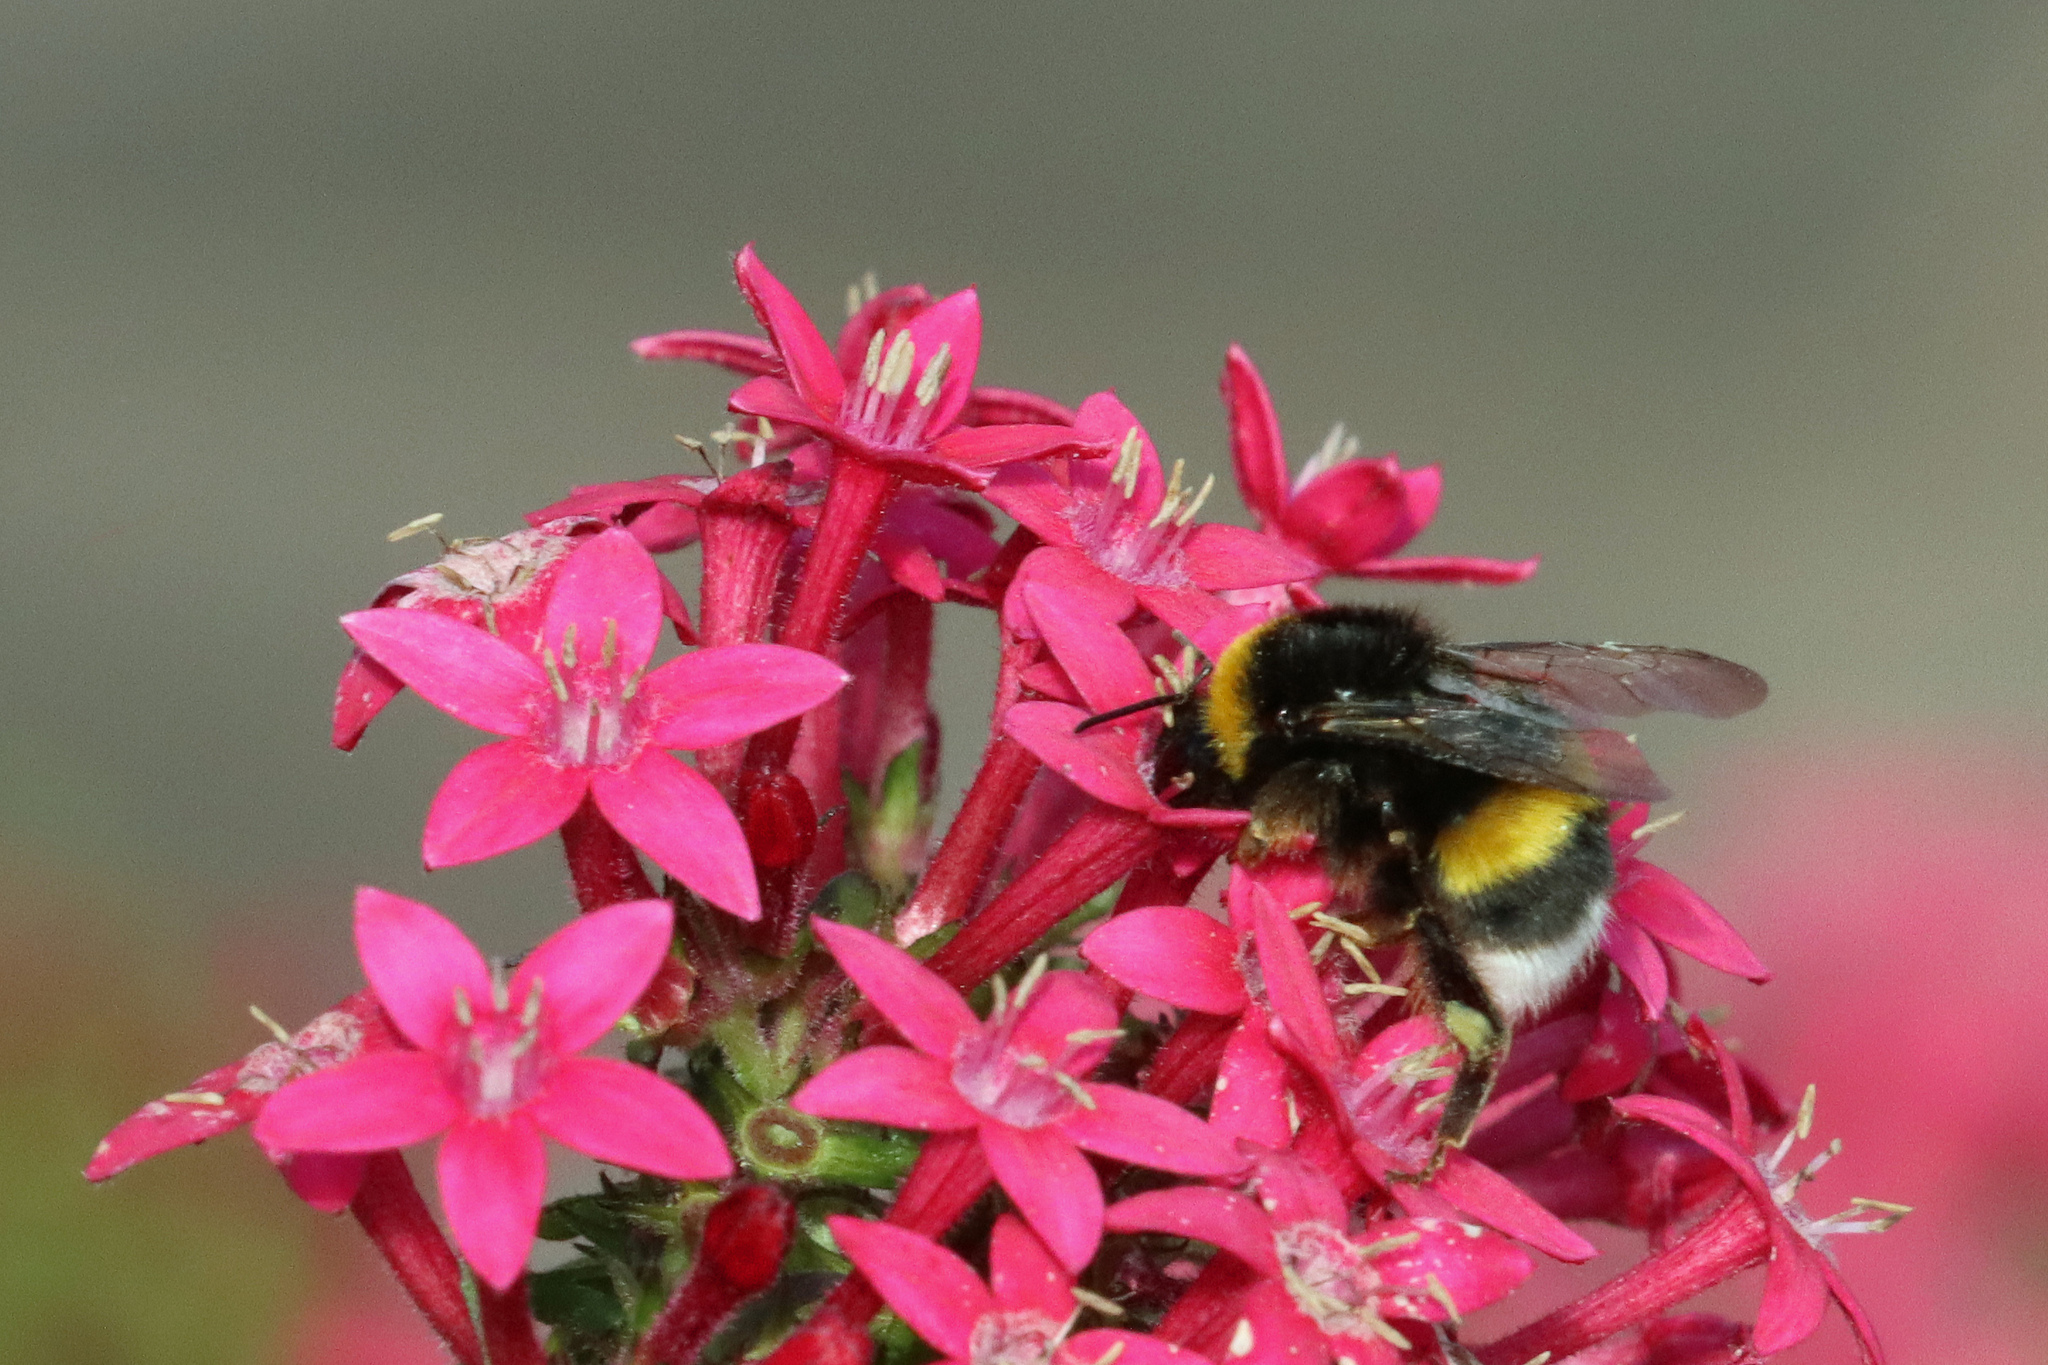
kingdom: Animalia
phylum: Arthropoda
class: Insecta
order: Hymenoptera
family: Apidae
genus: Bombus
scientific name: Bombus terrestris
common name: Buff-tailed bumblebee
